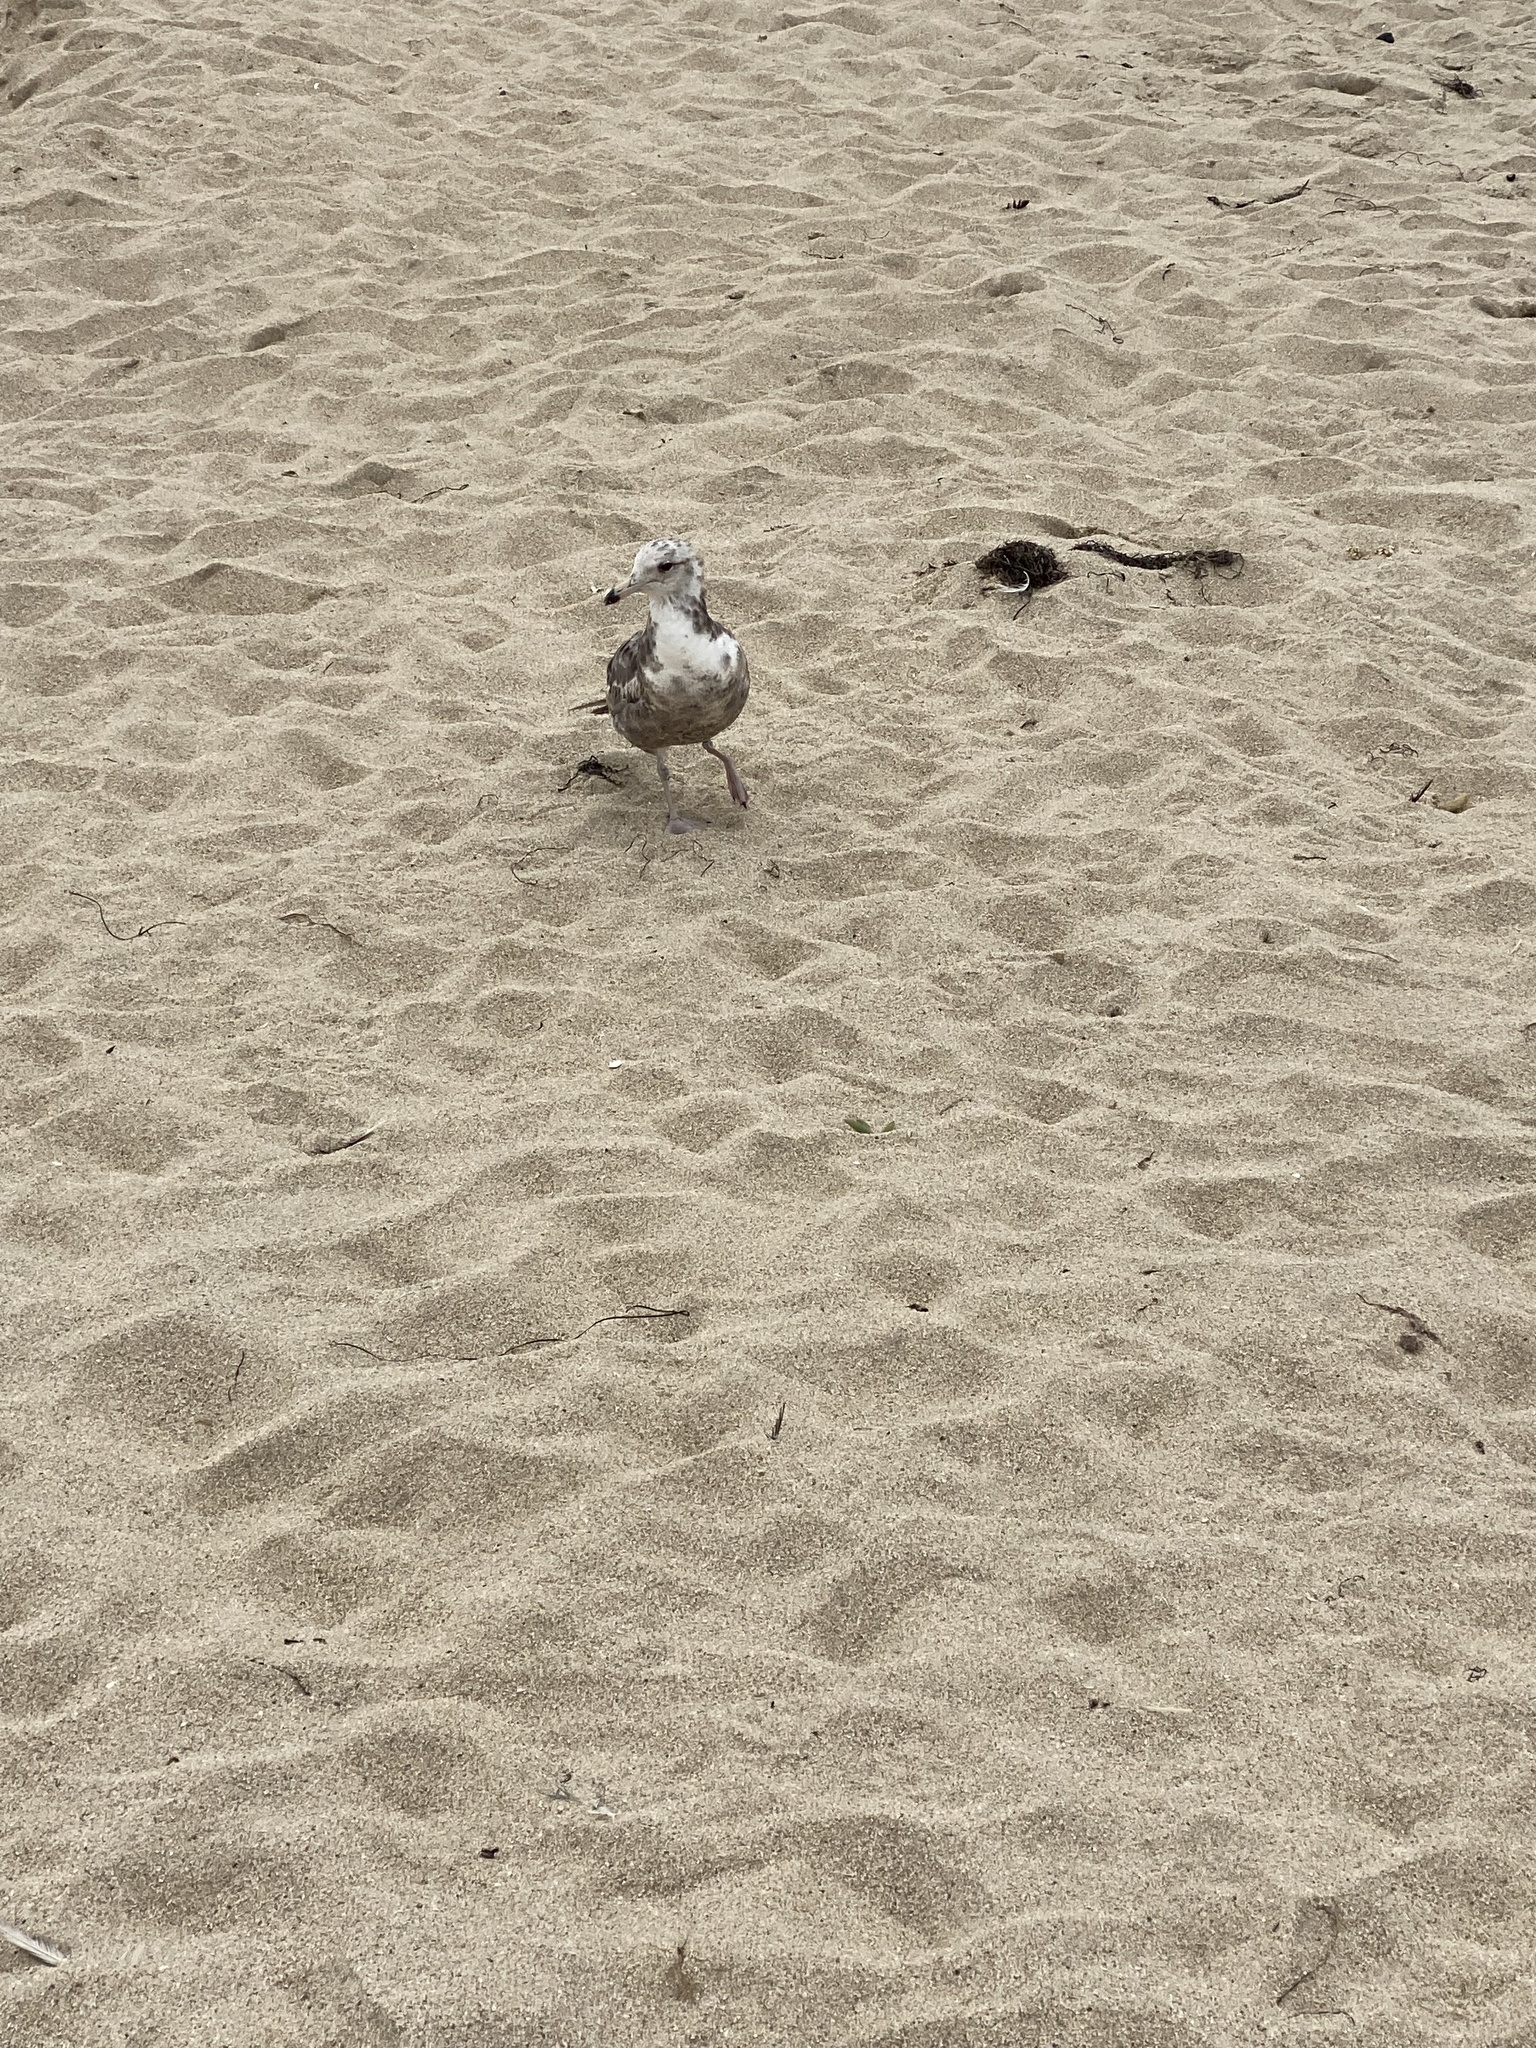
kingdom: Animalia
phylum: Chordata
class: Aves
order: Charadriiformes
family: Laridae
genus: Larus
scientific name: Larus californicus
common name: California gull
